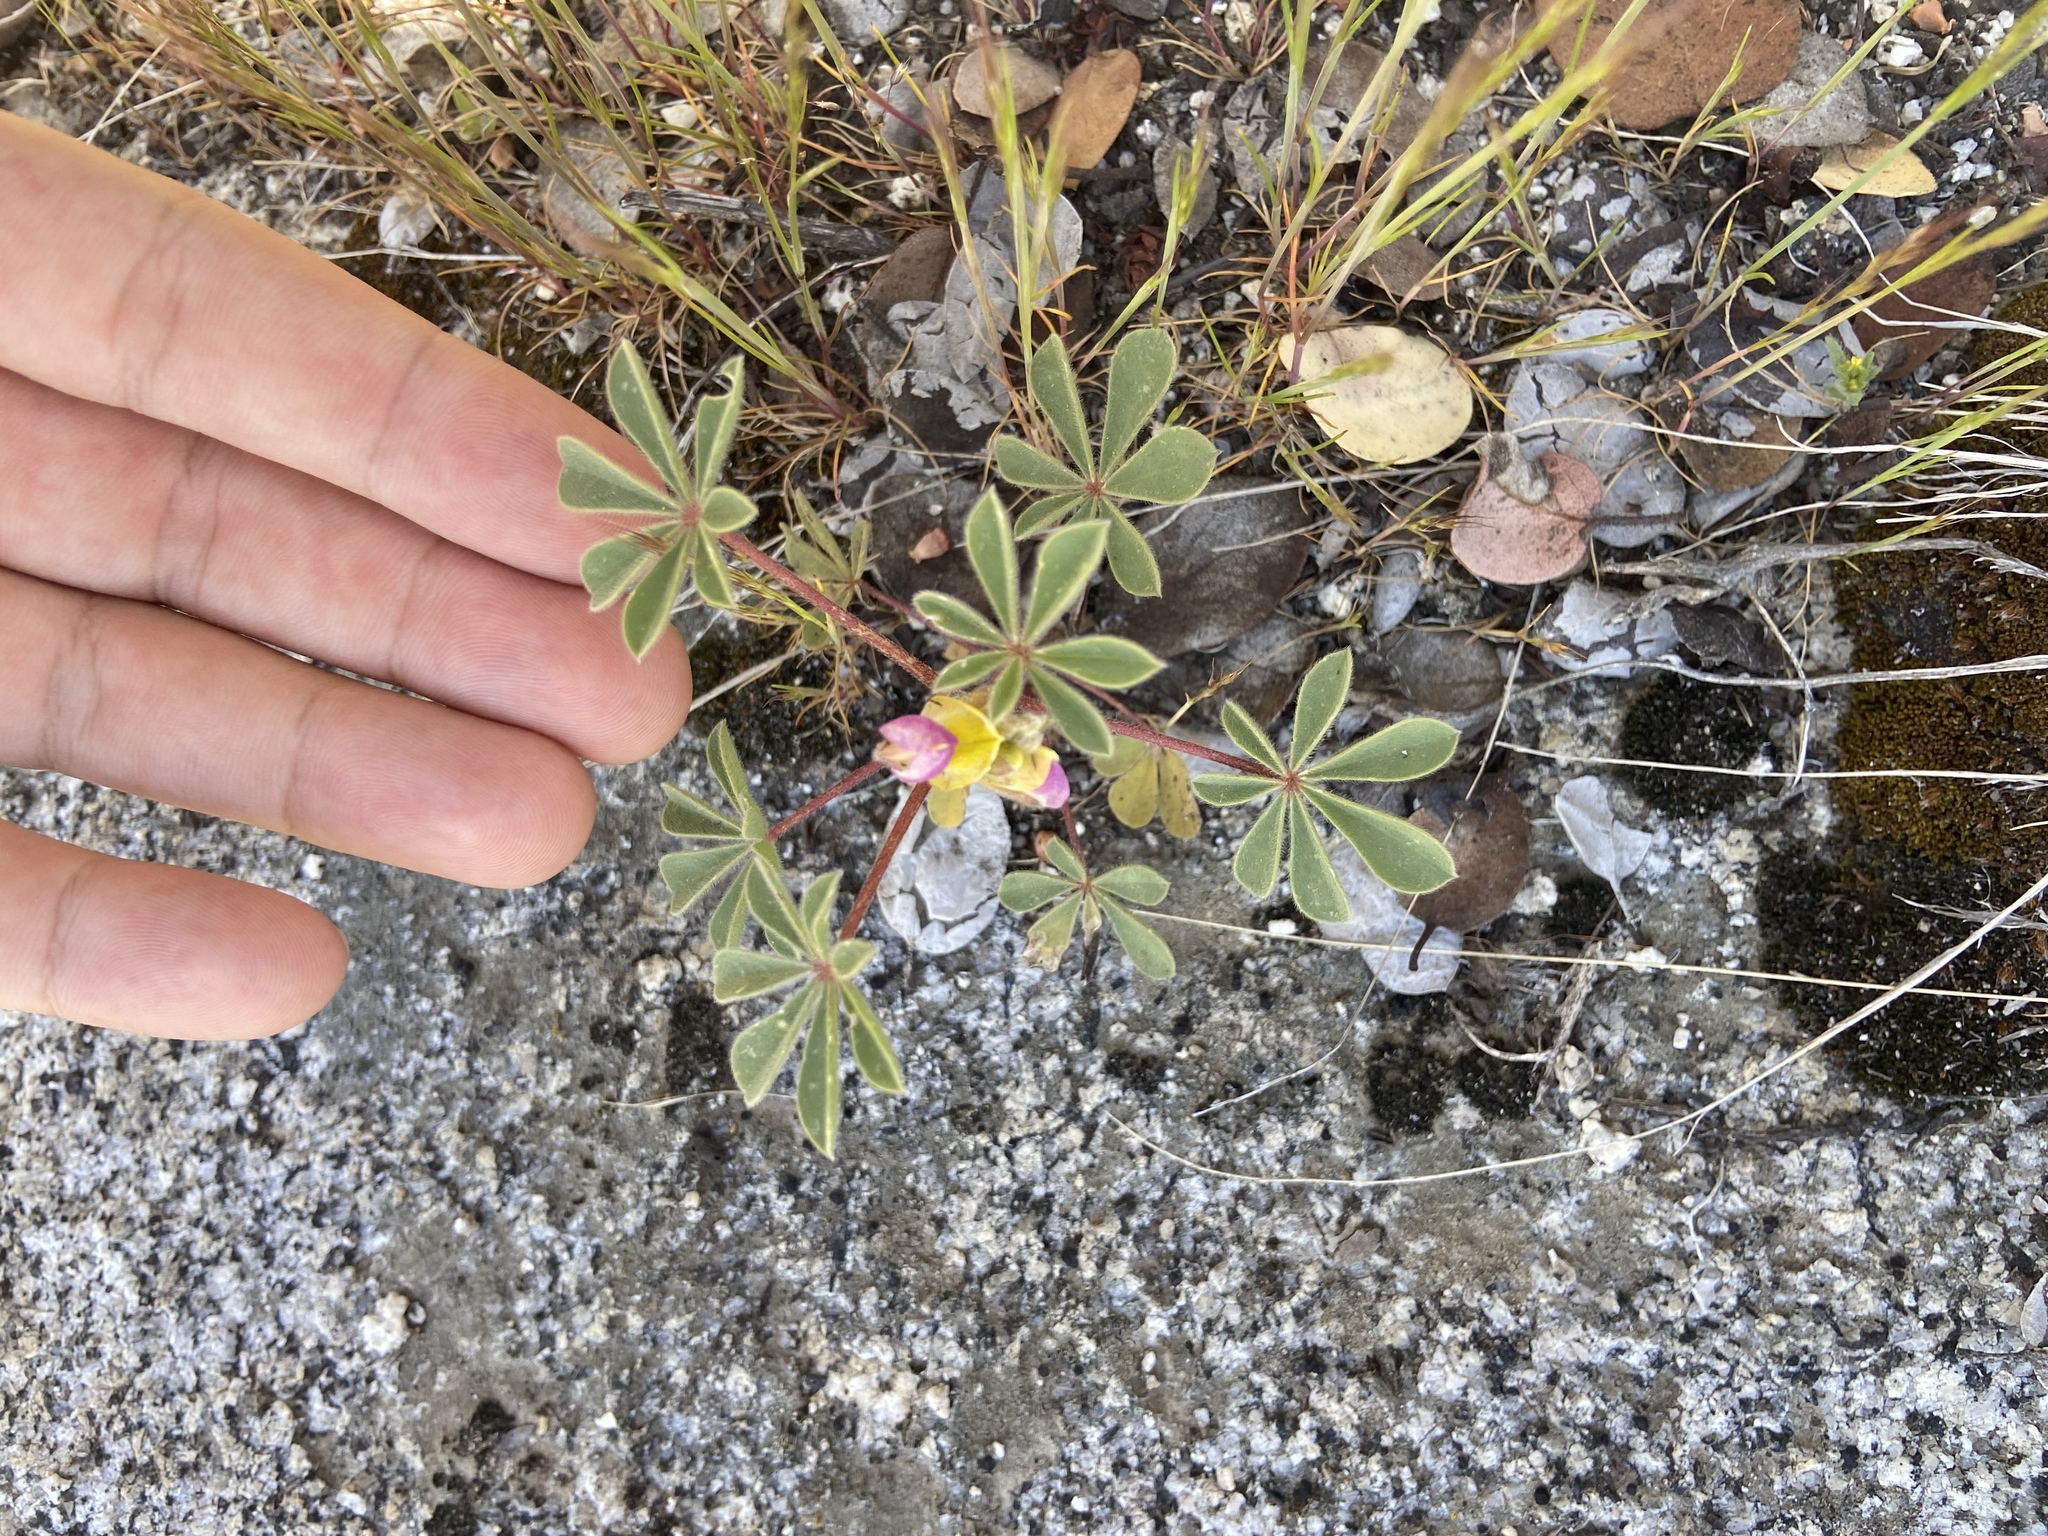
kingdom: Plantae
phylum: Tracheophyta
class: Magnoliopsida
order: Fabales
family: Fabaceae
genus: Lupinus
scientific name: Lupinus stiversii
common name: Harlequin lupine
